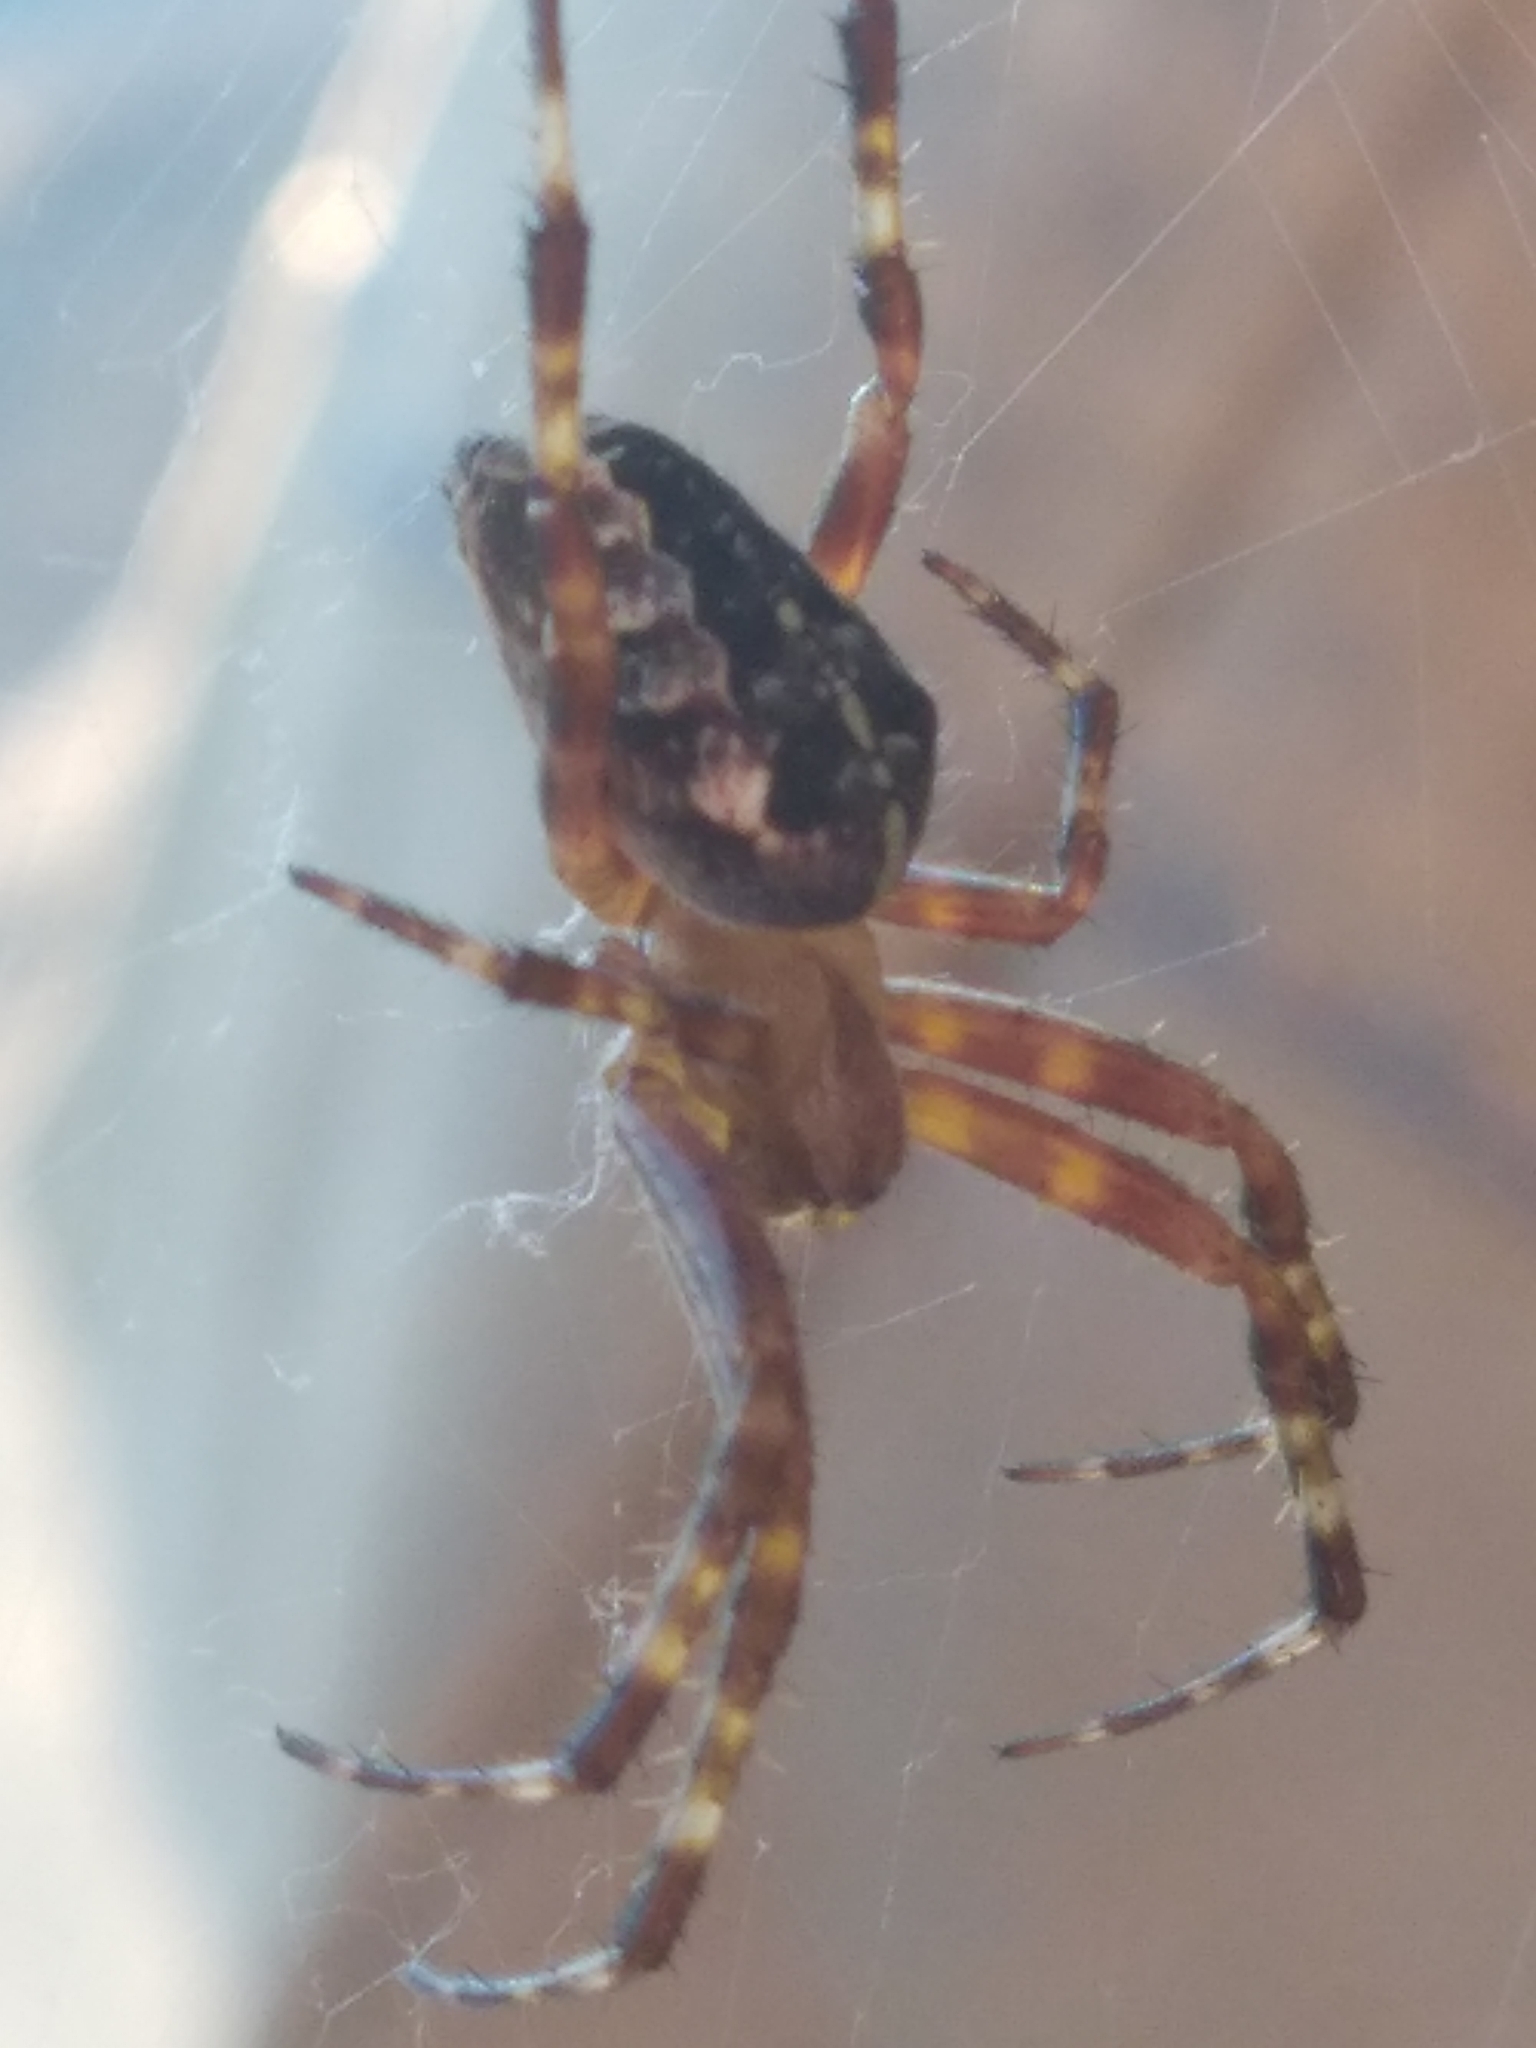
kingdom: Animalia
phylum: Arthropoda
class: Arachnida
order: Araneae
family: Araneidae
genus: Araneus
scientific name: Araneus diadematus
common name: Cross orbweaver
